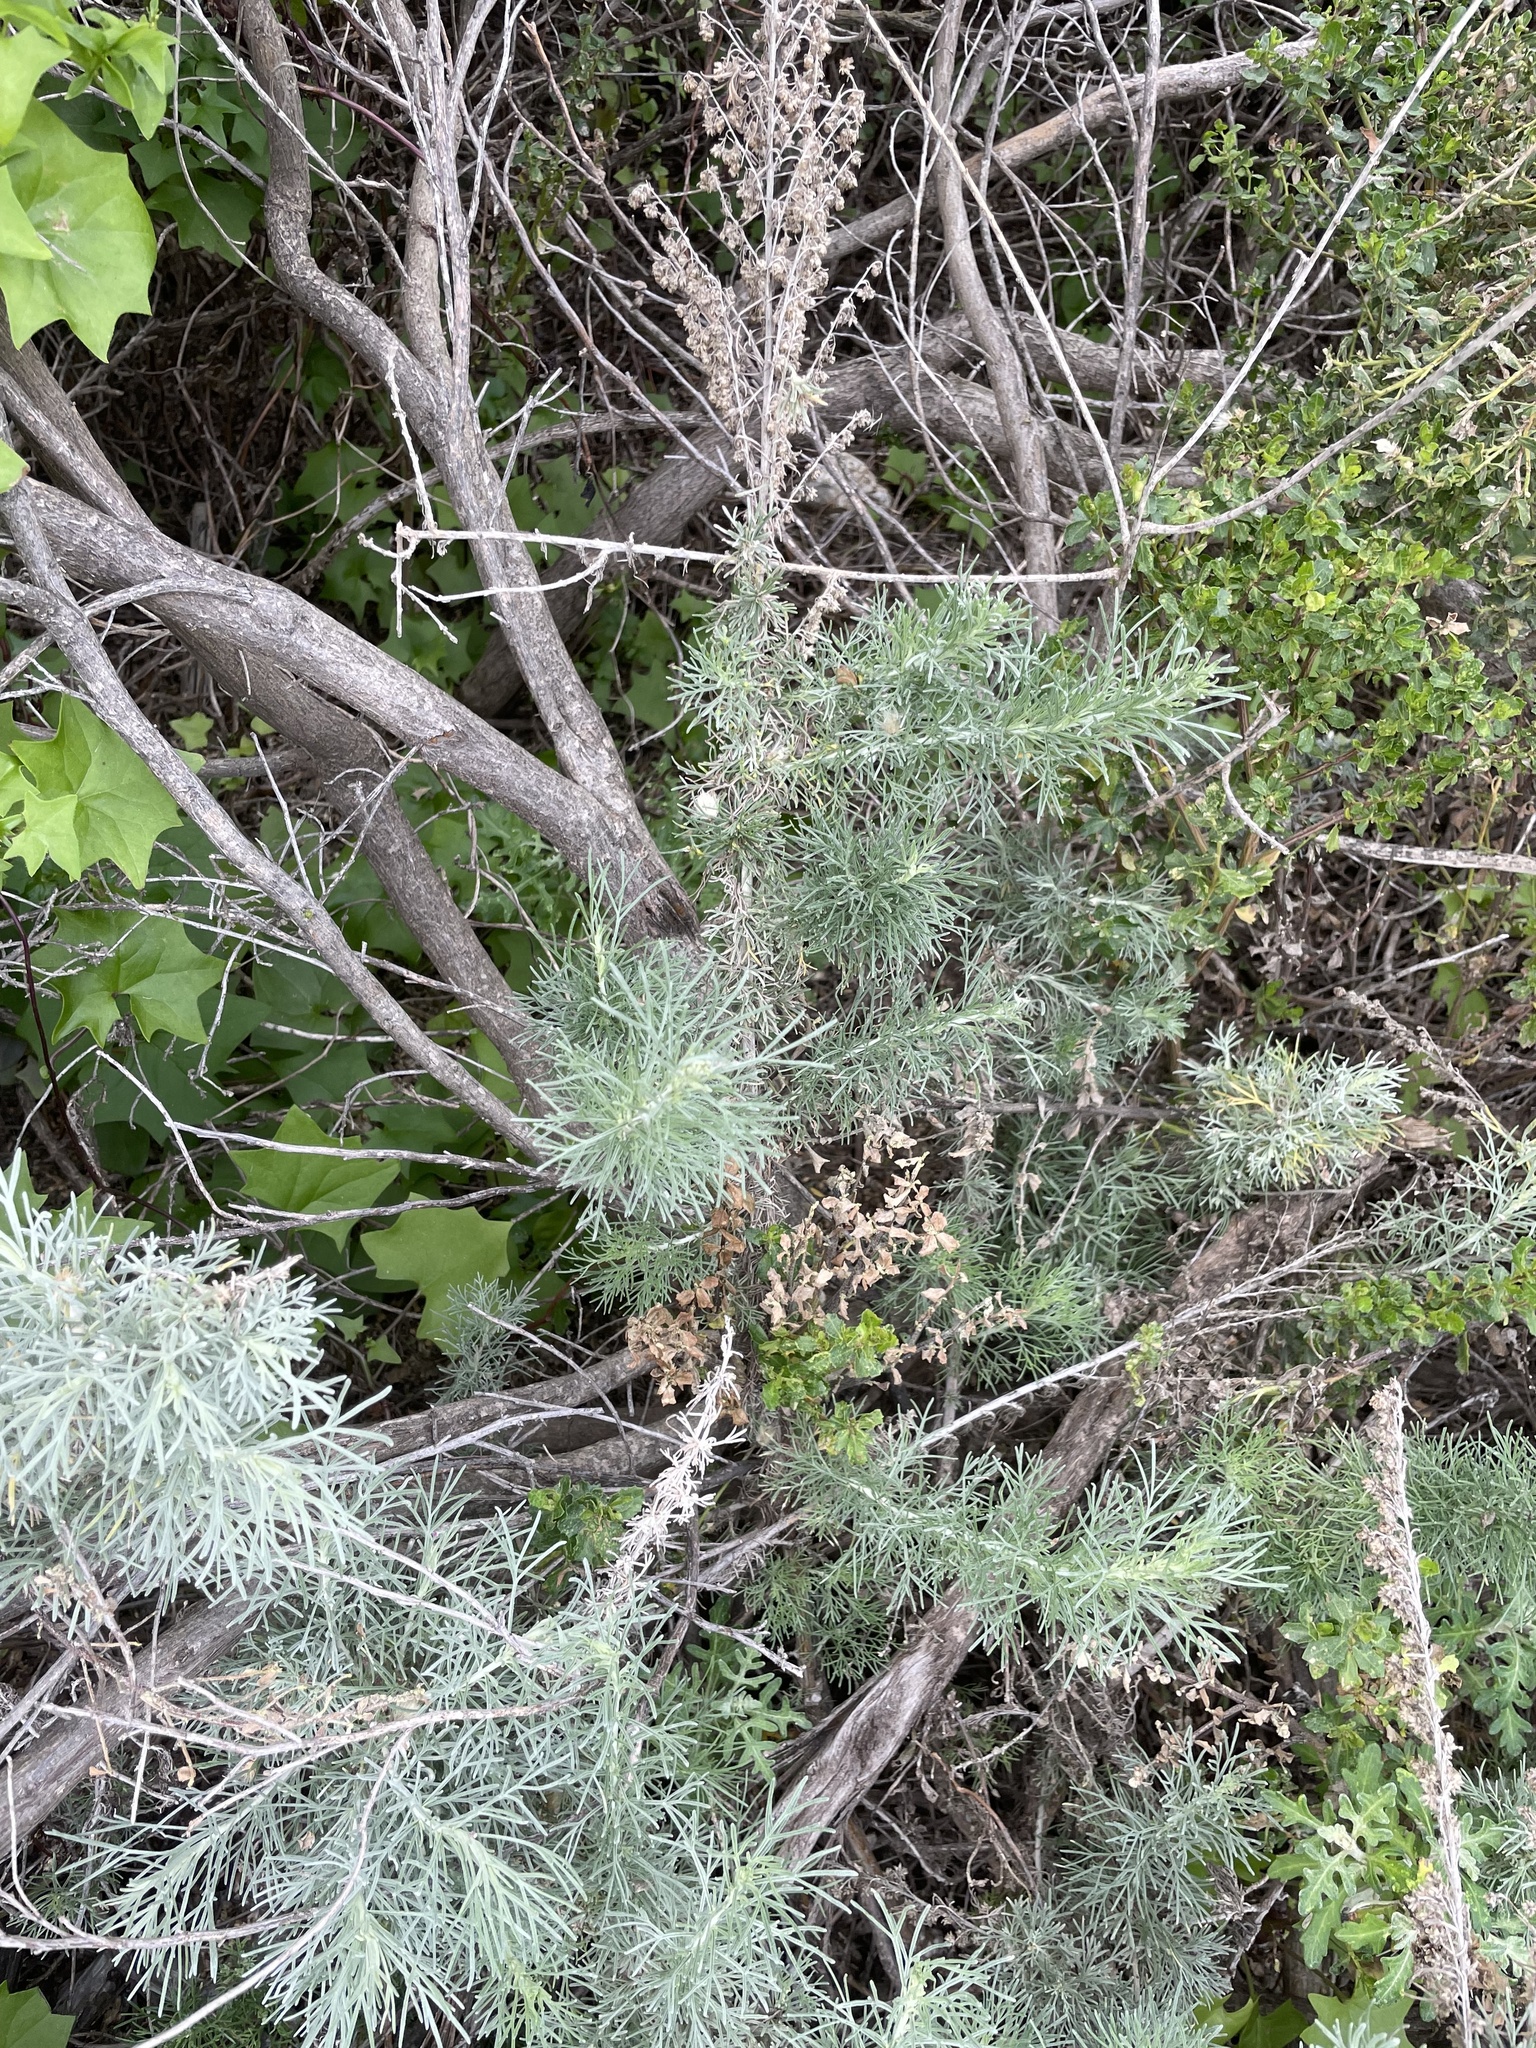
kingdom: Plantae
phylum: Tracheophyta
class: Magnoliopsida
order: Asterales
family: Asteraceae
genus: Artemisia
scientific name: Artemisia californica
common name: California sagebrush
